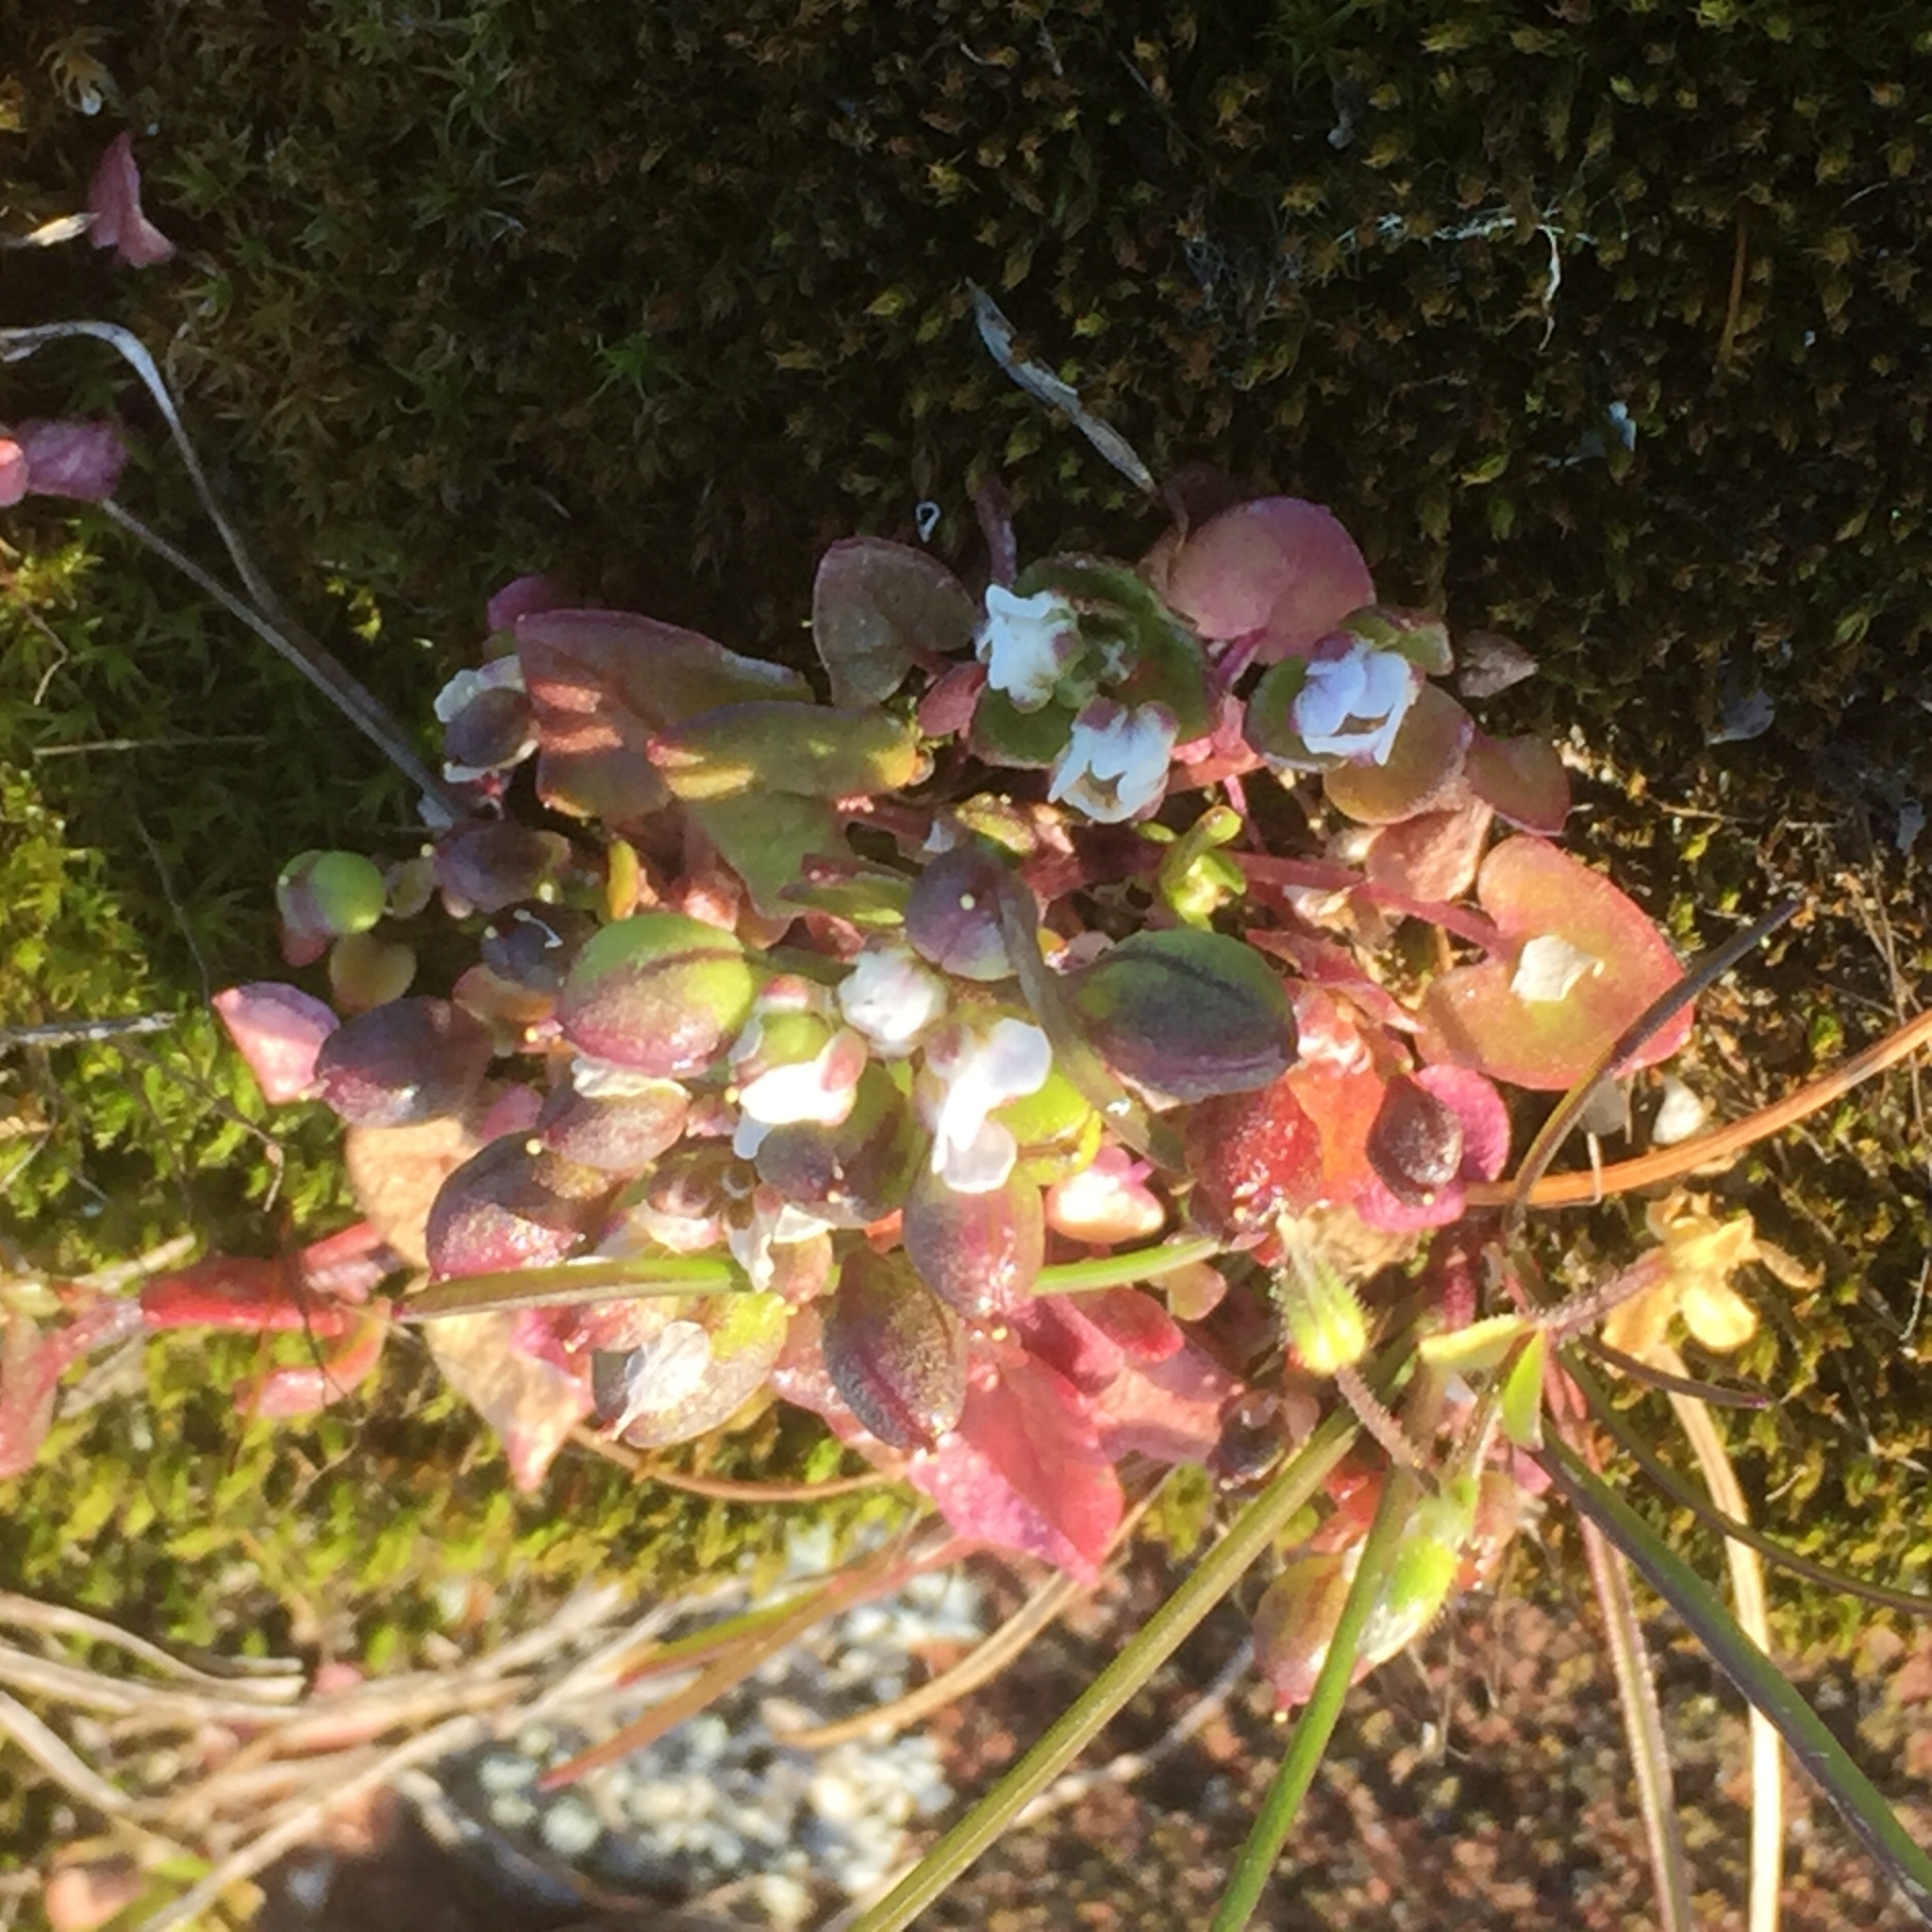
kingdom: Plantae
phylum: Tracheophyta
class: Magnoliopsida
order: Brassicales
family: Brassicaceae
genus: Cochlearia
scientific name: Cochlearia danica
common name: Early scurvygrass
